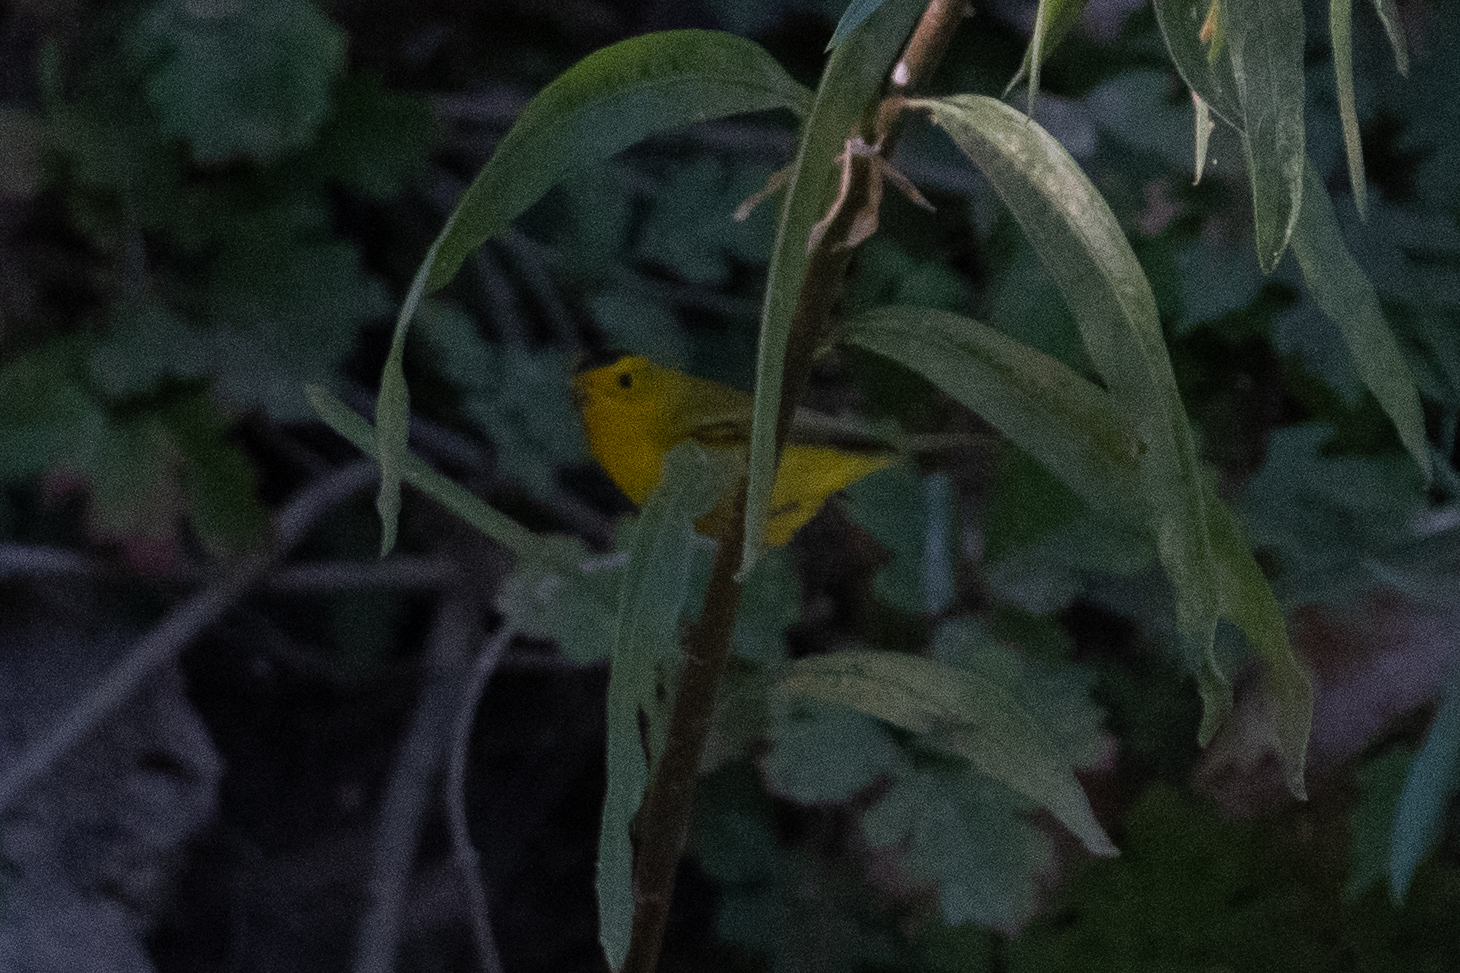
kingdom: Animalia
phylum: Chordata
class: Aves
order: Passeriformes
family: Parulidae
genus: Cardellina
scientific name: Cardellina pusilla
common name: Wilson's warbler
